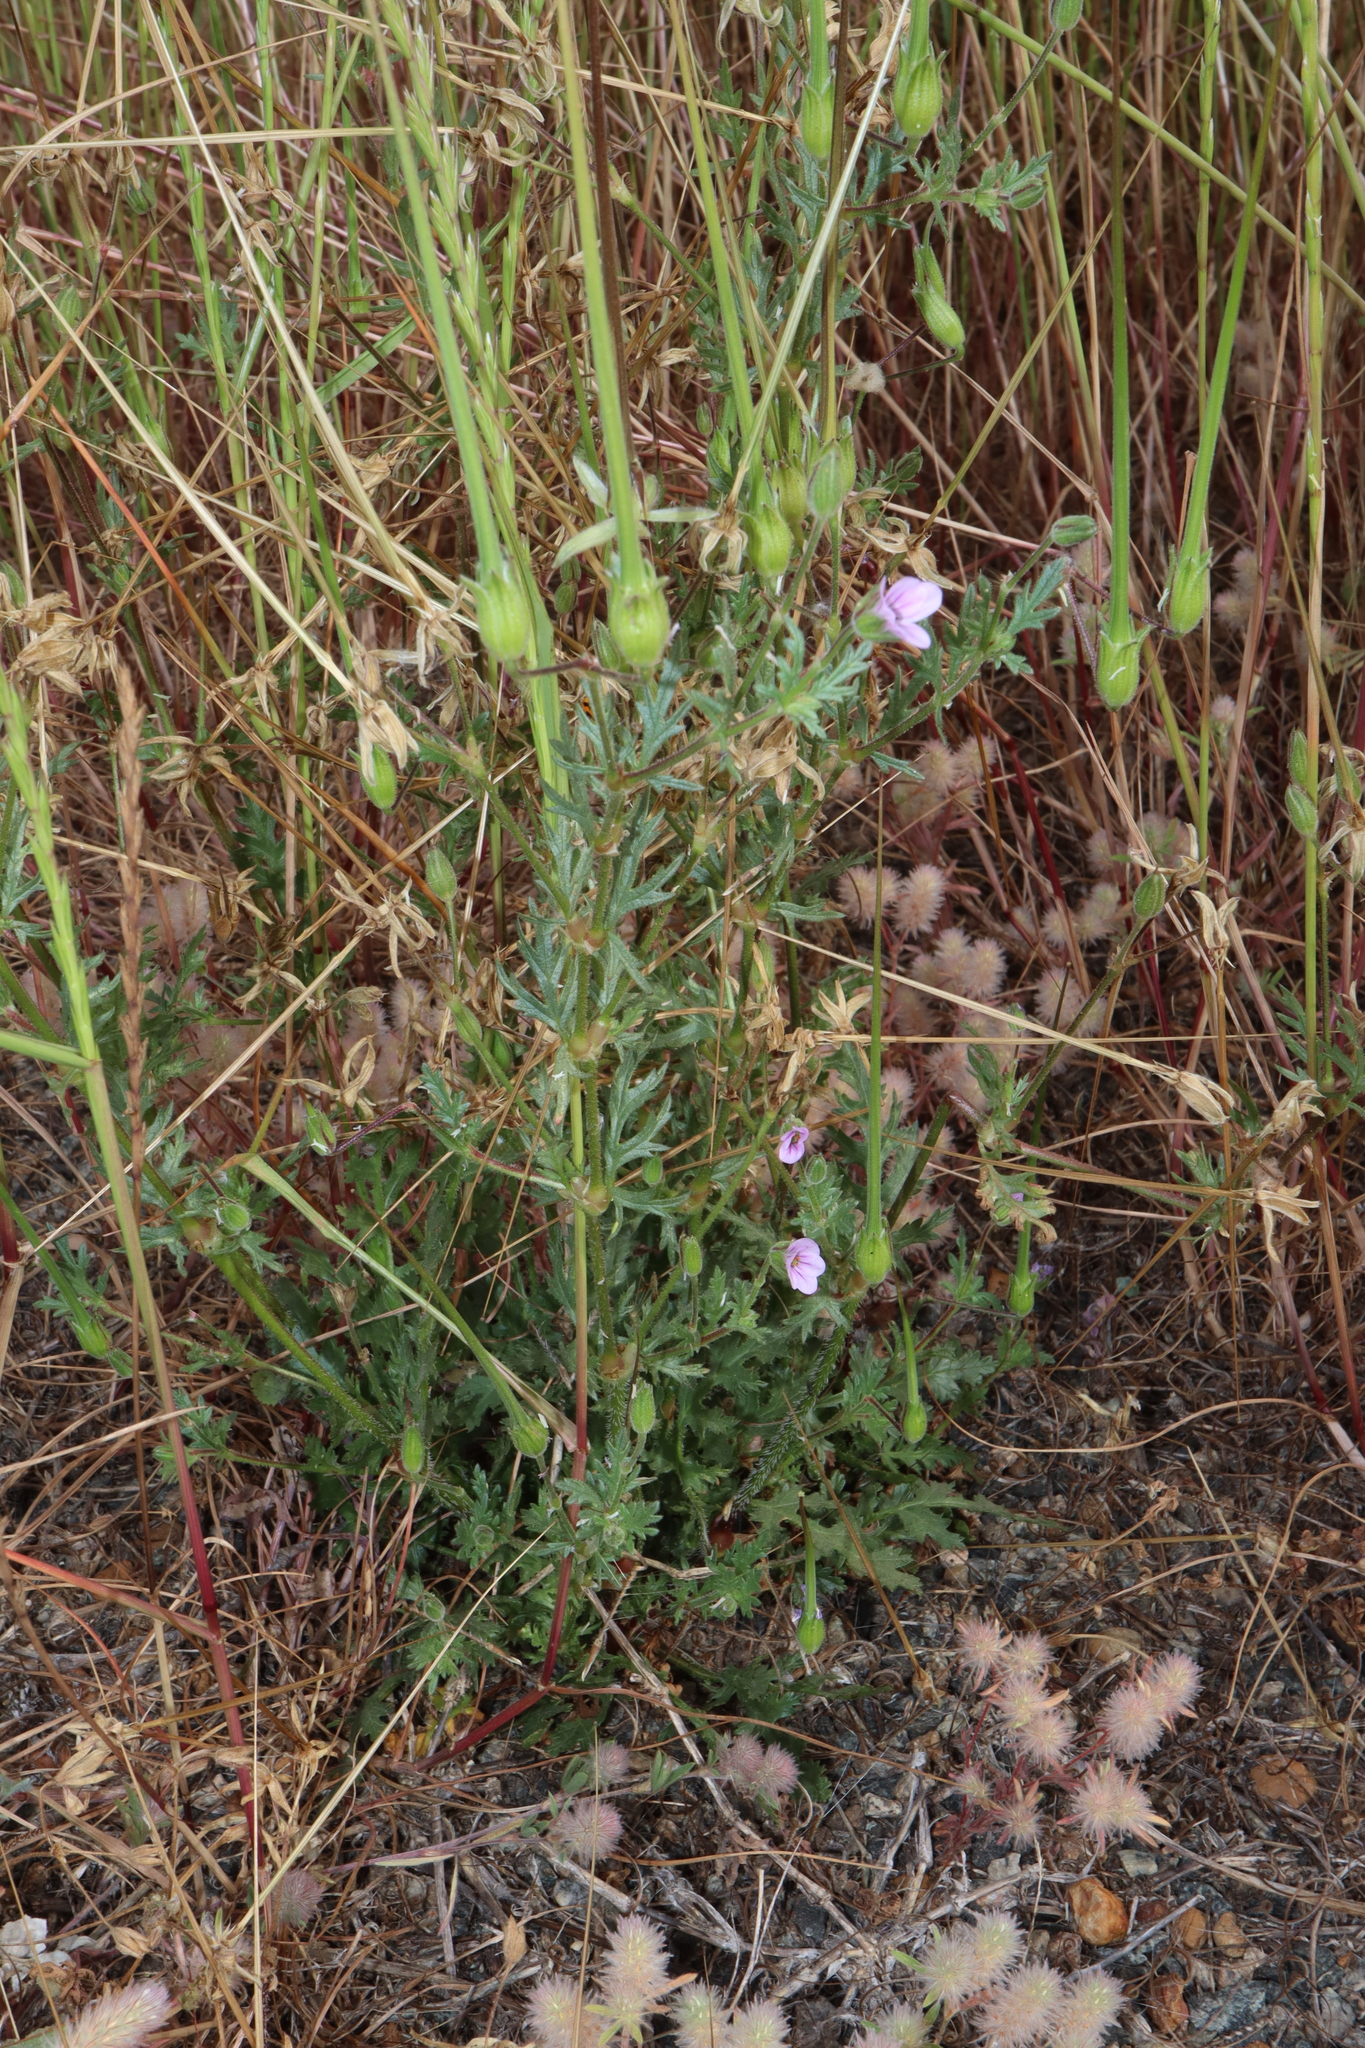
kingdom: Plantae
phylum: Tracheophyta
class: Magnoliopsida
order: Geraniales
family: Geraniaceae
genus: Erodium
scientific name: Erodium botrys
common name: Mediterranean stork's-bill
